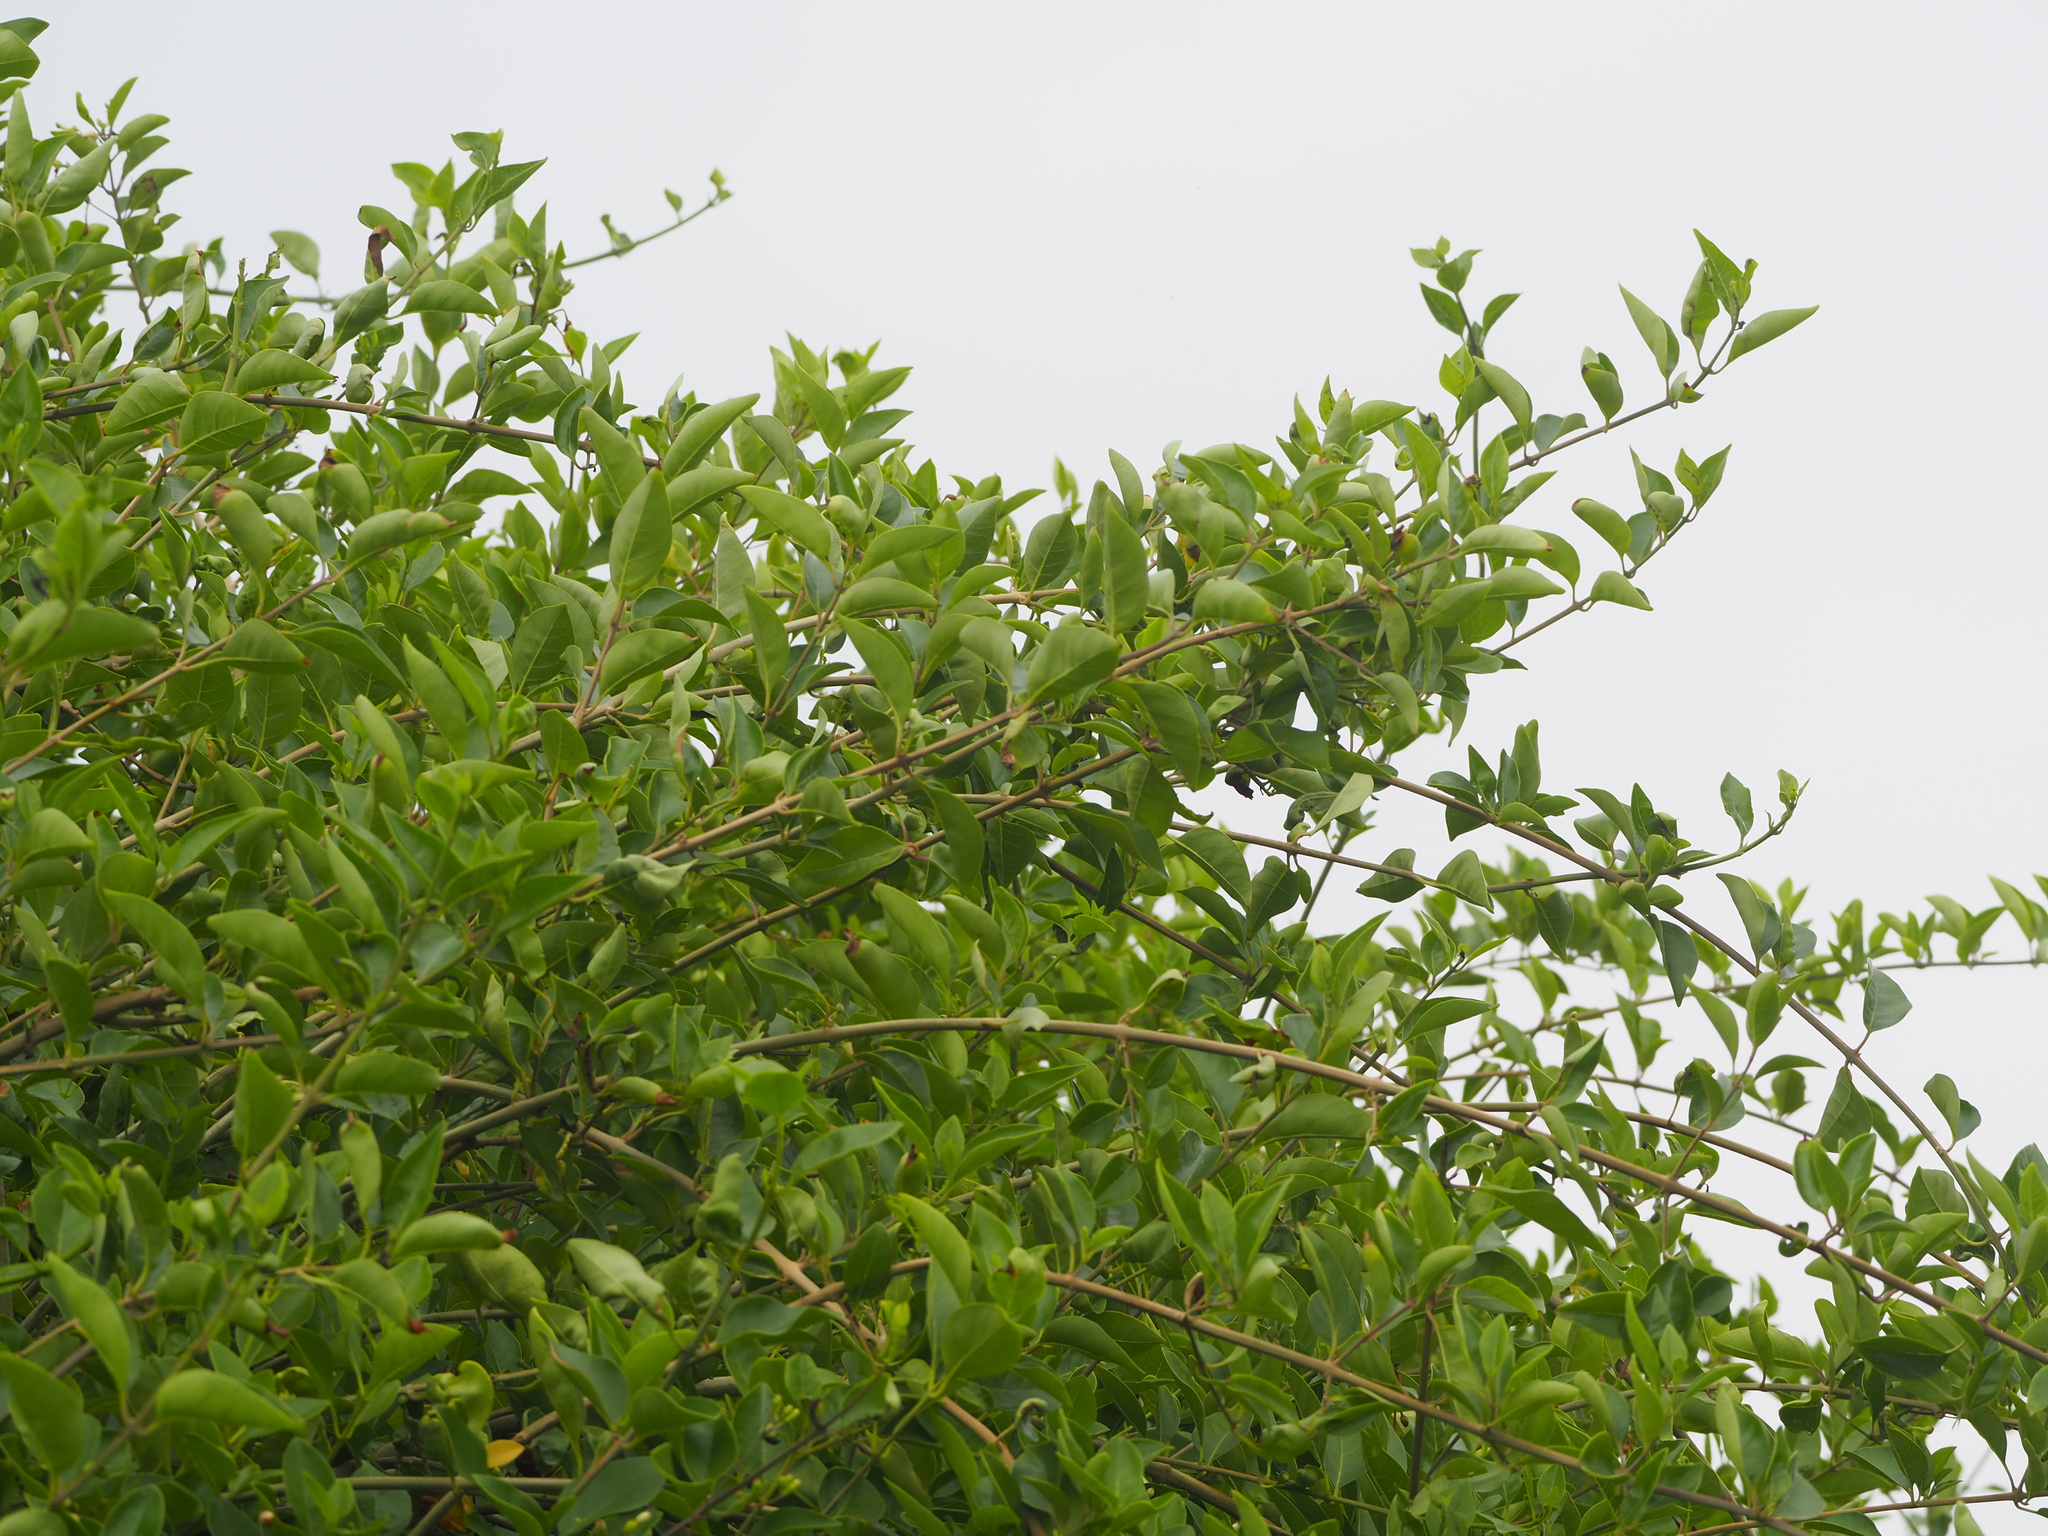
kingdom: Plantae
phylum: Tracheophyta
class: Magnoliopsida
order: Lamiales
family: Lamiaceae
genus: Volkameria
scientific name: Volkameria inermis
